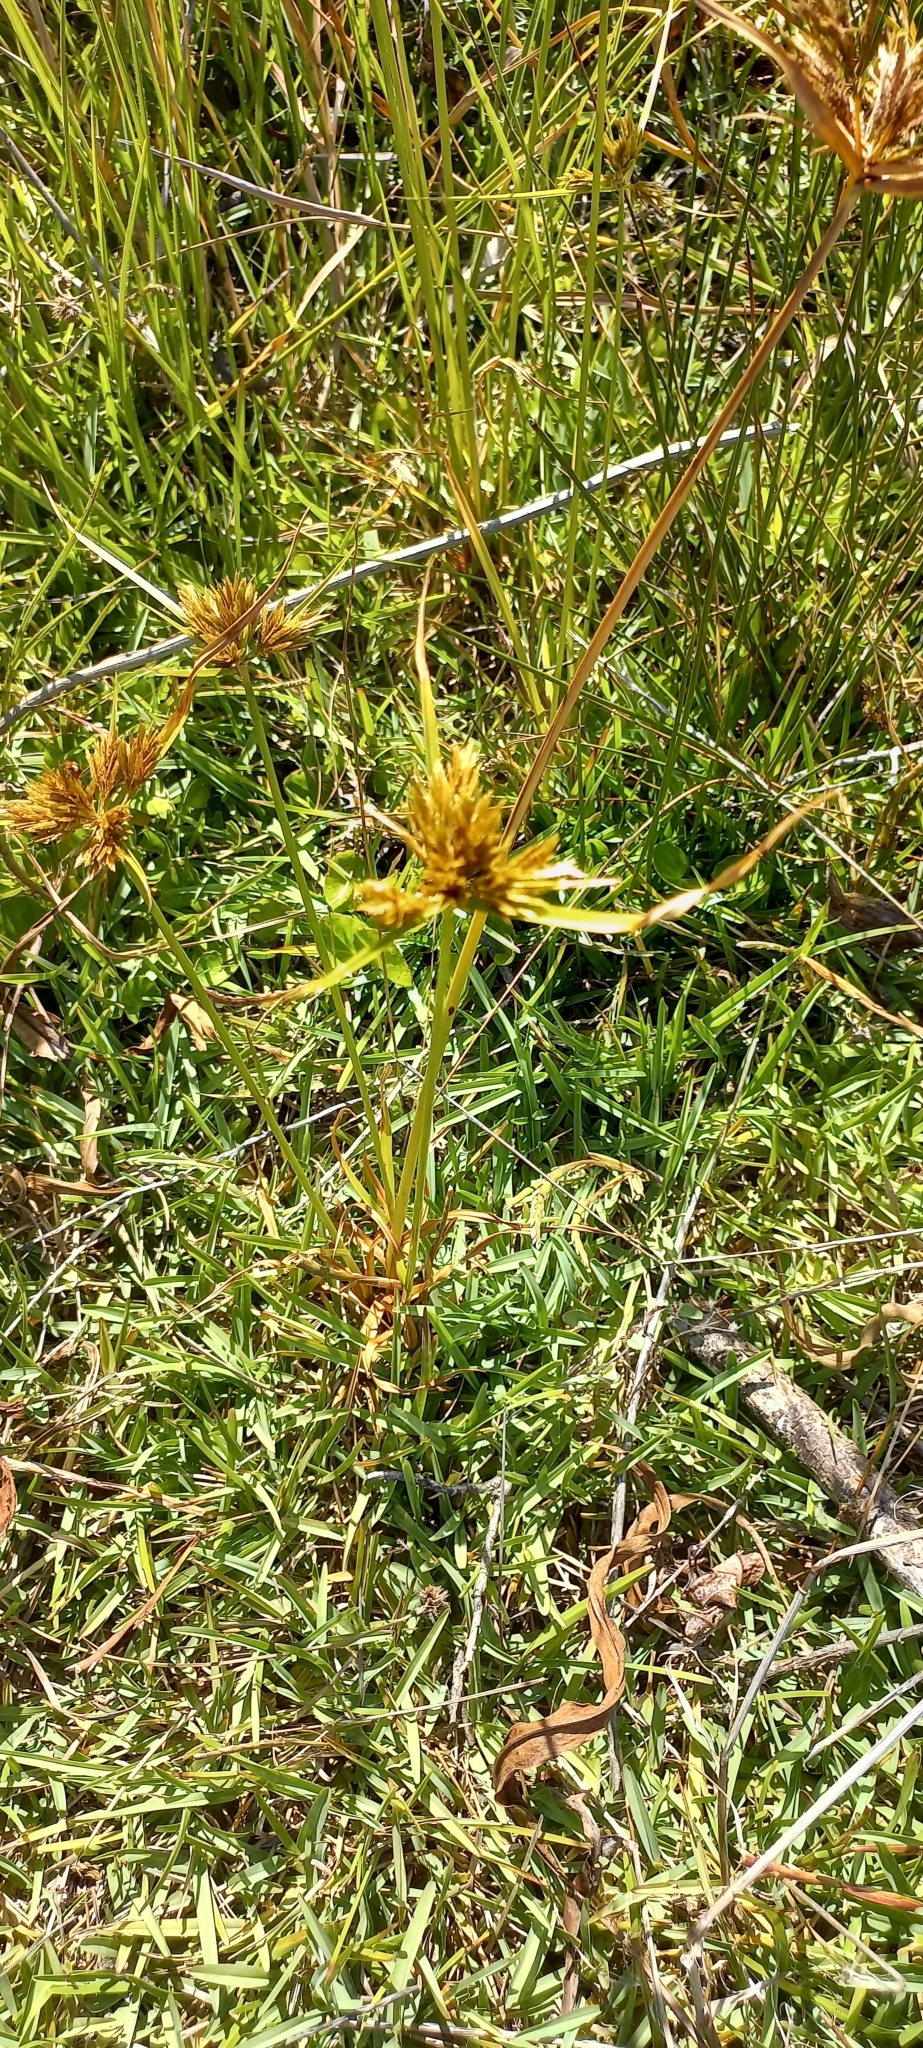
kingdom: Plantae
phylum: Tracheophyta
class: Liliopsida
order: Poales
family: Cyperaceae
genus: Cyperus
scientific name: Cyperus polystachyos
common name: Bunchy flat sedge
